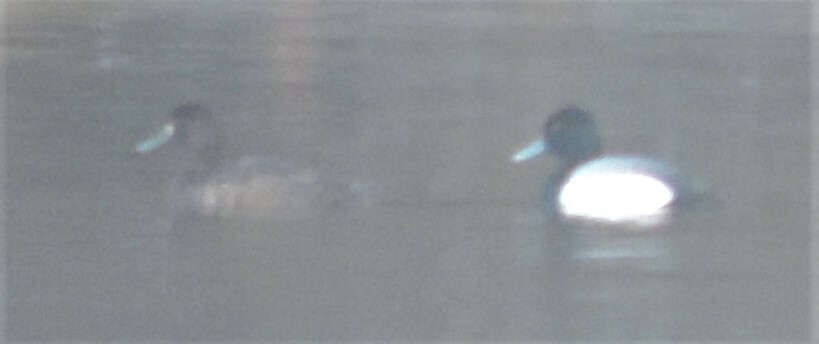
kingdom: Animalia
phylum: Chordata
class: Aves
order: Anseriformes
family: Anatidae
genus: Aythya
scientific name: Aythya marila
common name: Greater scaup
